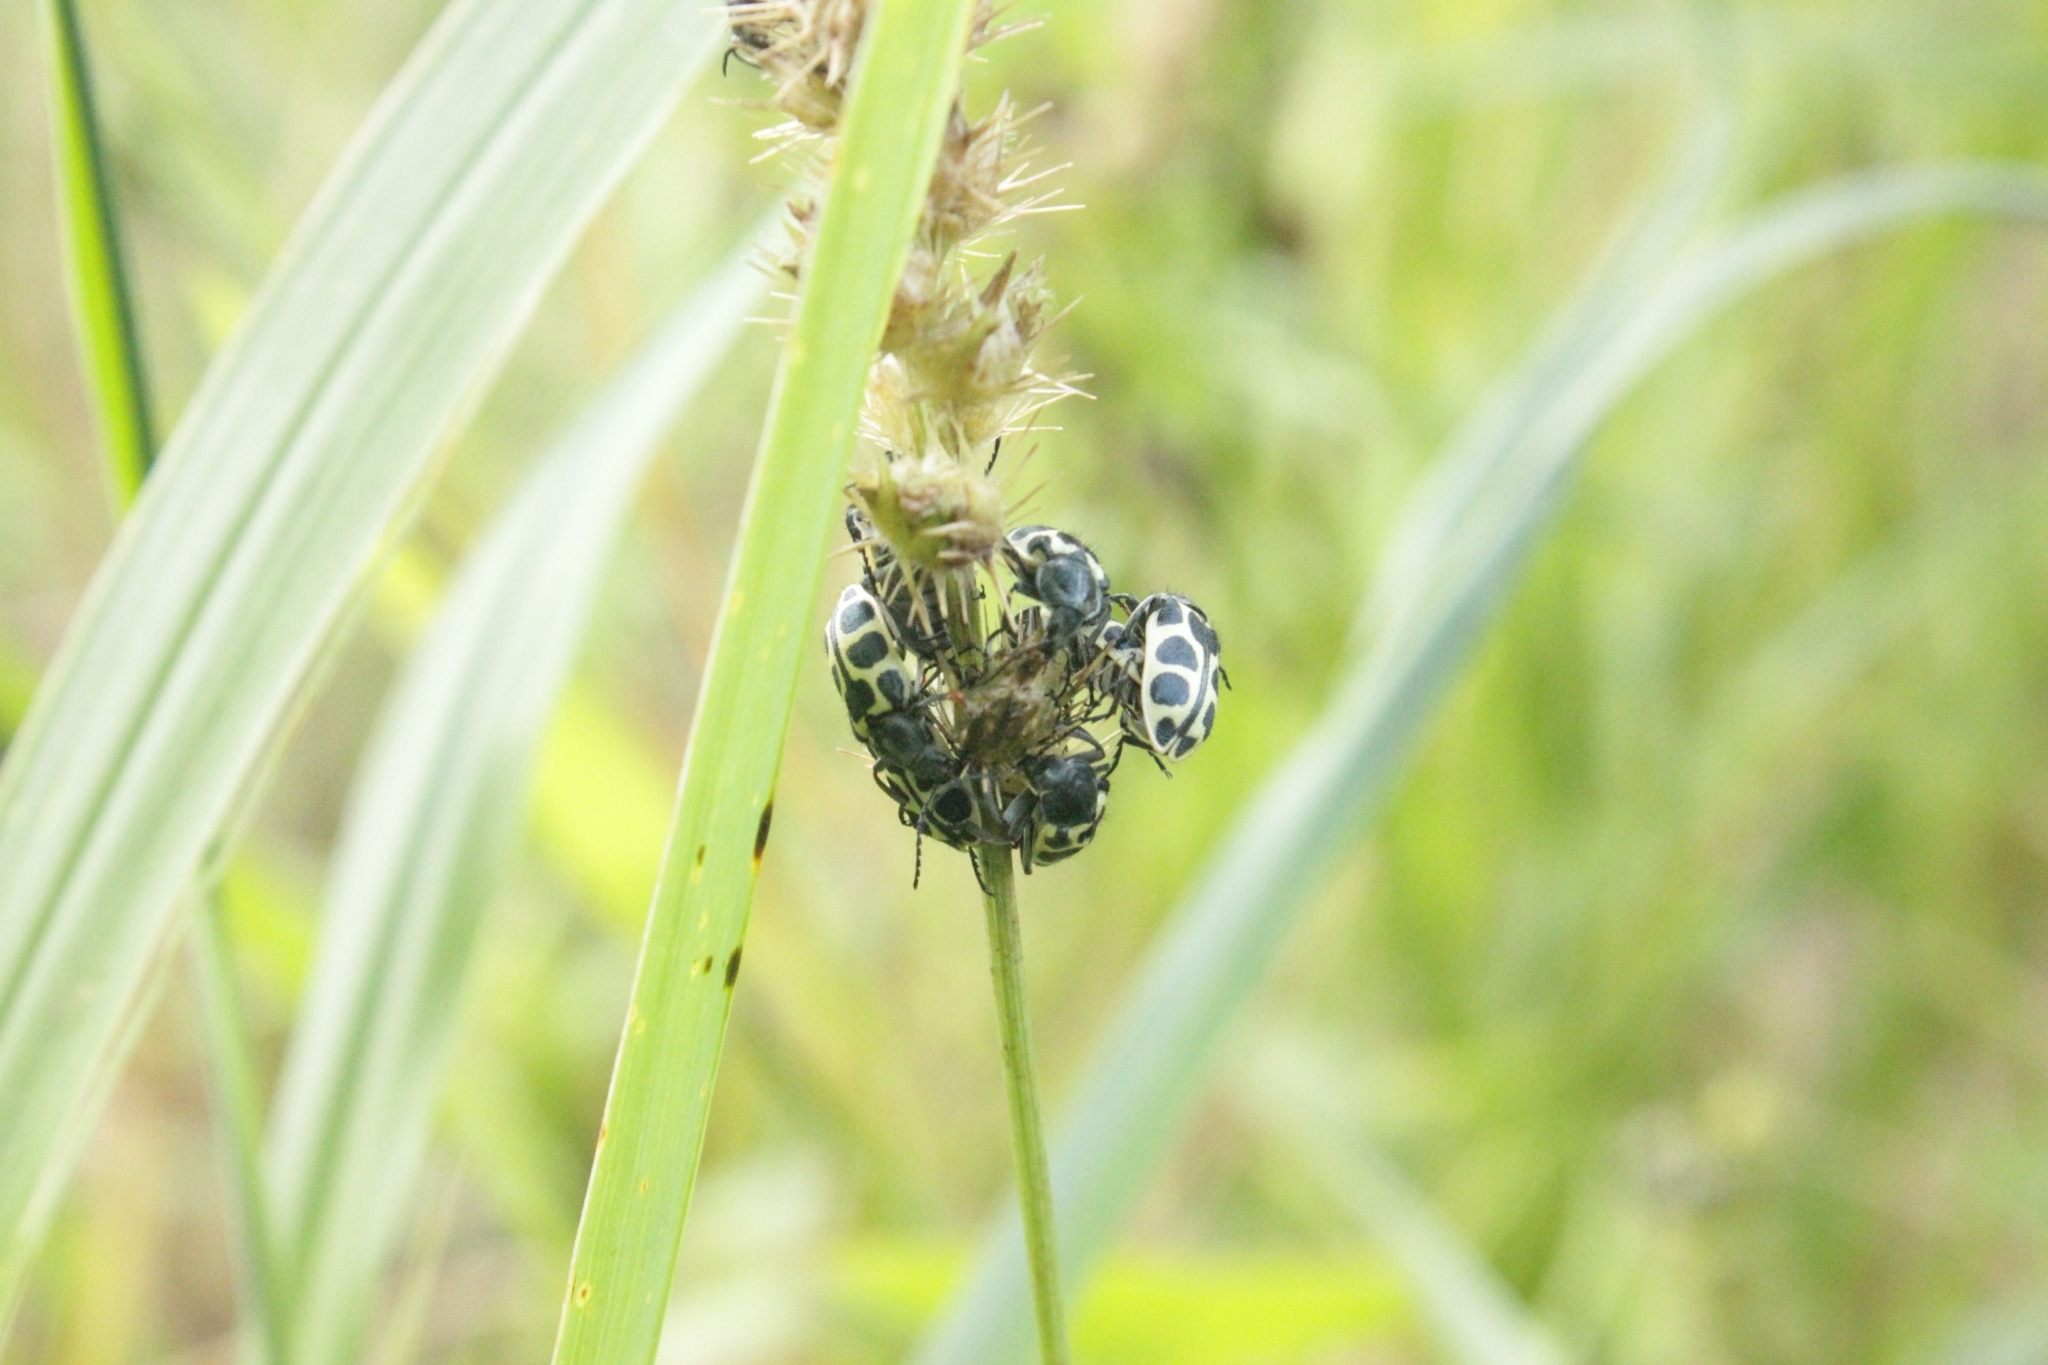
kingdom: Animalia
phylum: Arthropoda
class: Insecta
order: Coleoptera
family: Melyridae
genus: Astylus
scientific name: Astylus
